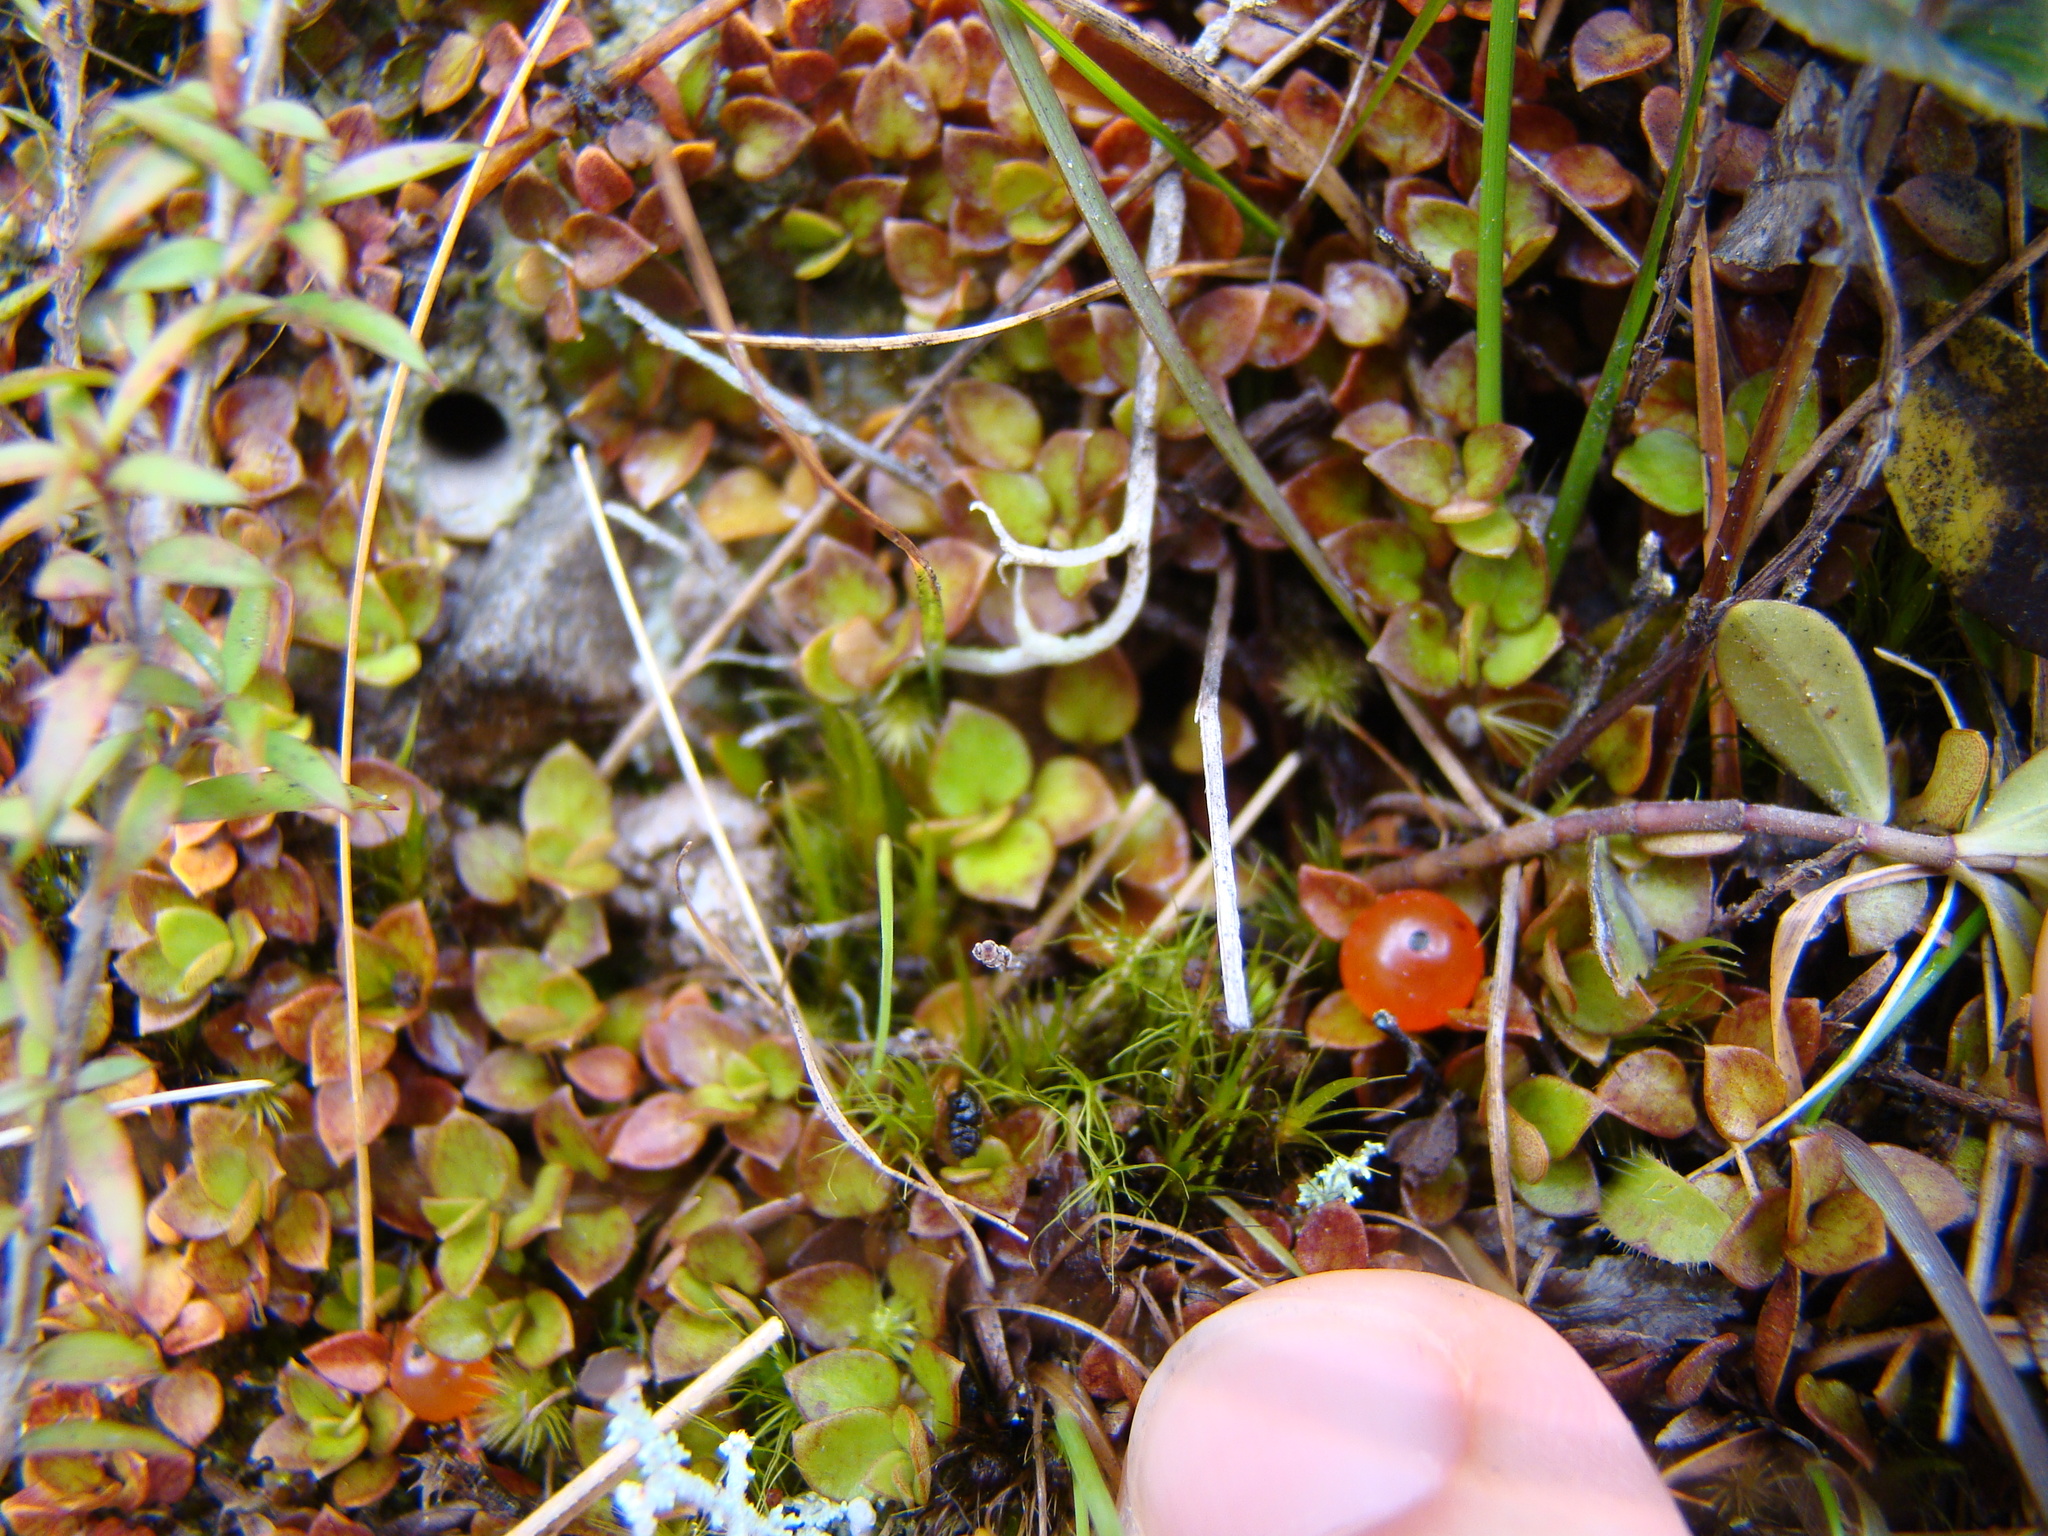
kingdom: Plantae
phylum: Tracheophyta
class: Magnoliopsida
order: Gentianales
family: Rubiaceae
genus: Nertera
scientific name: Nertera granadensis
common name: Beadplant
